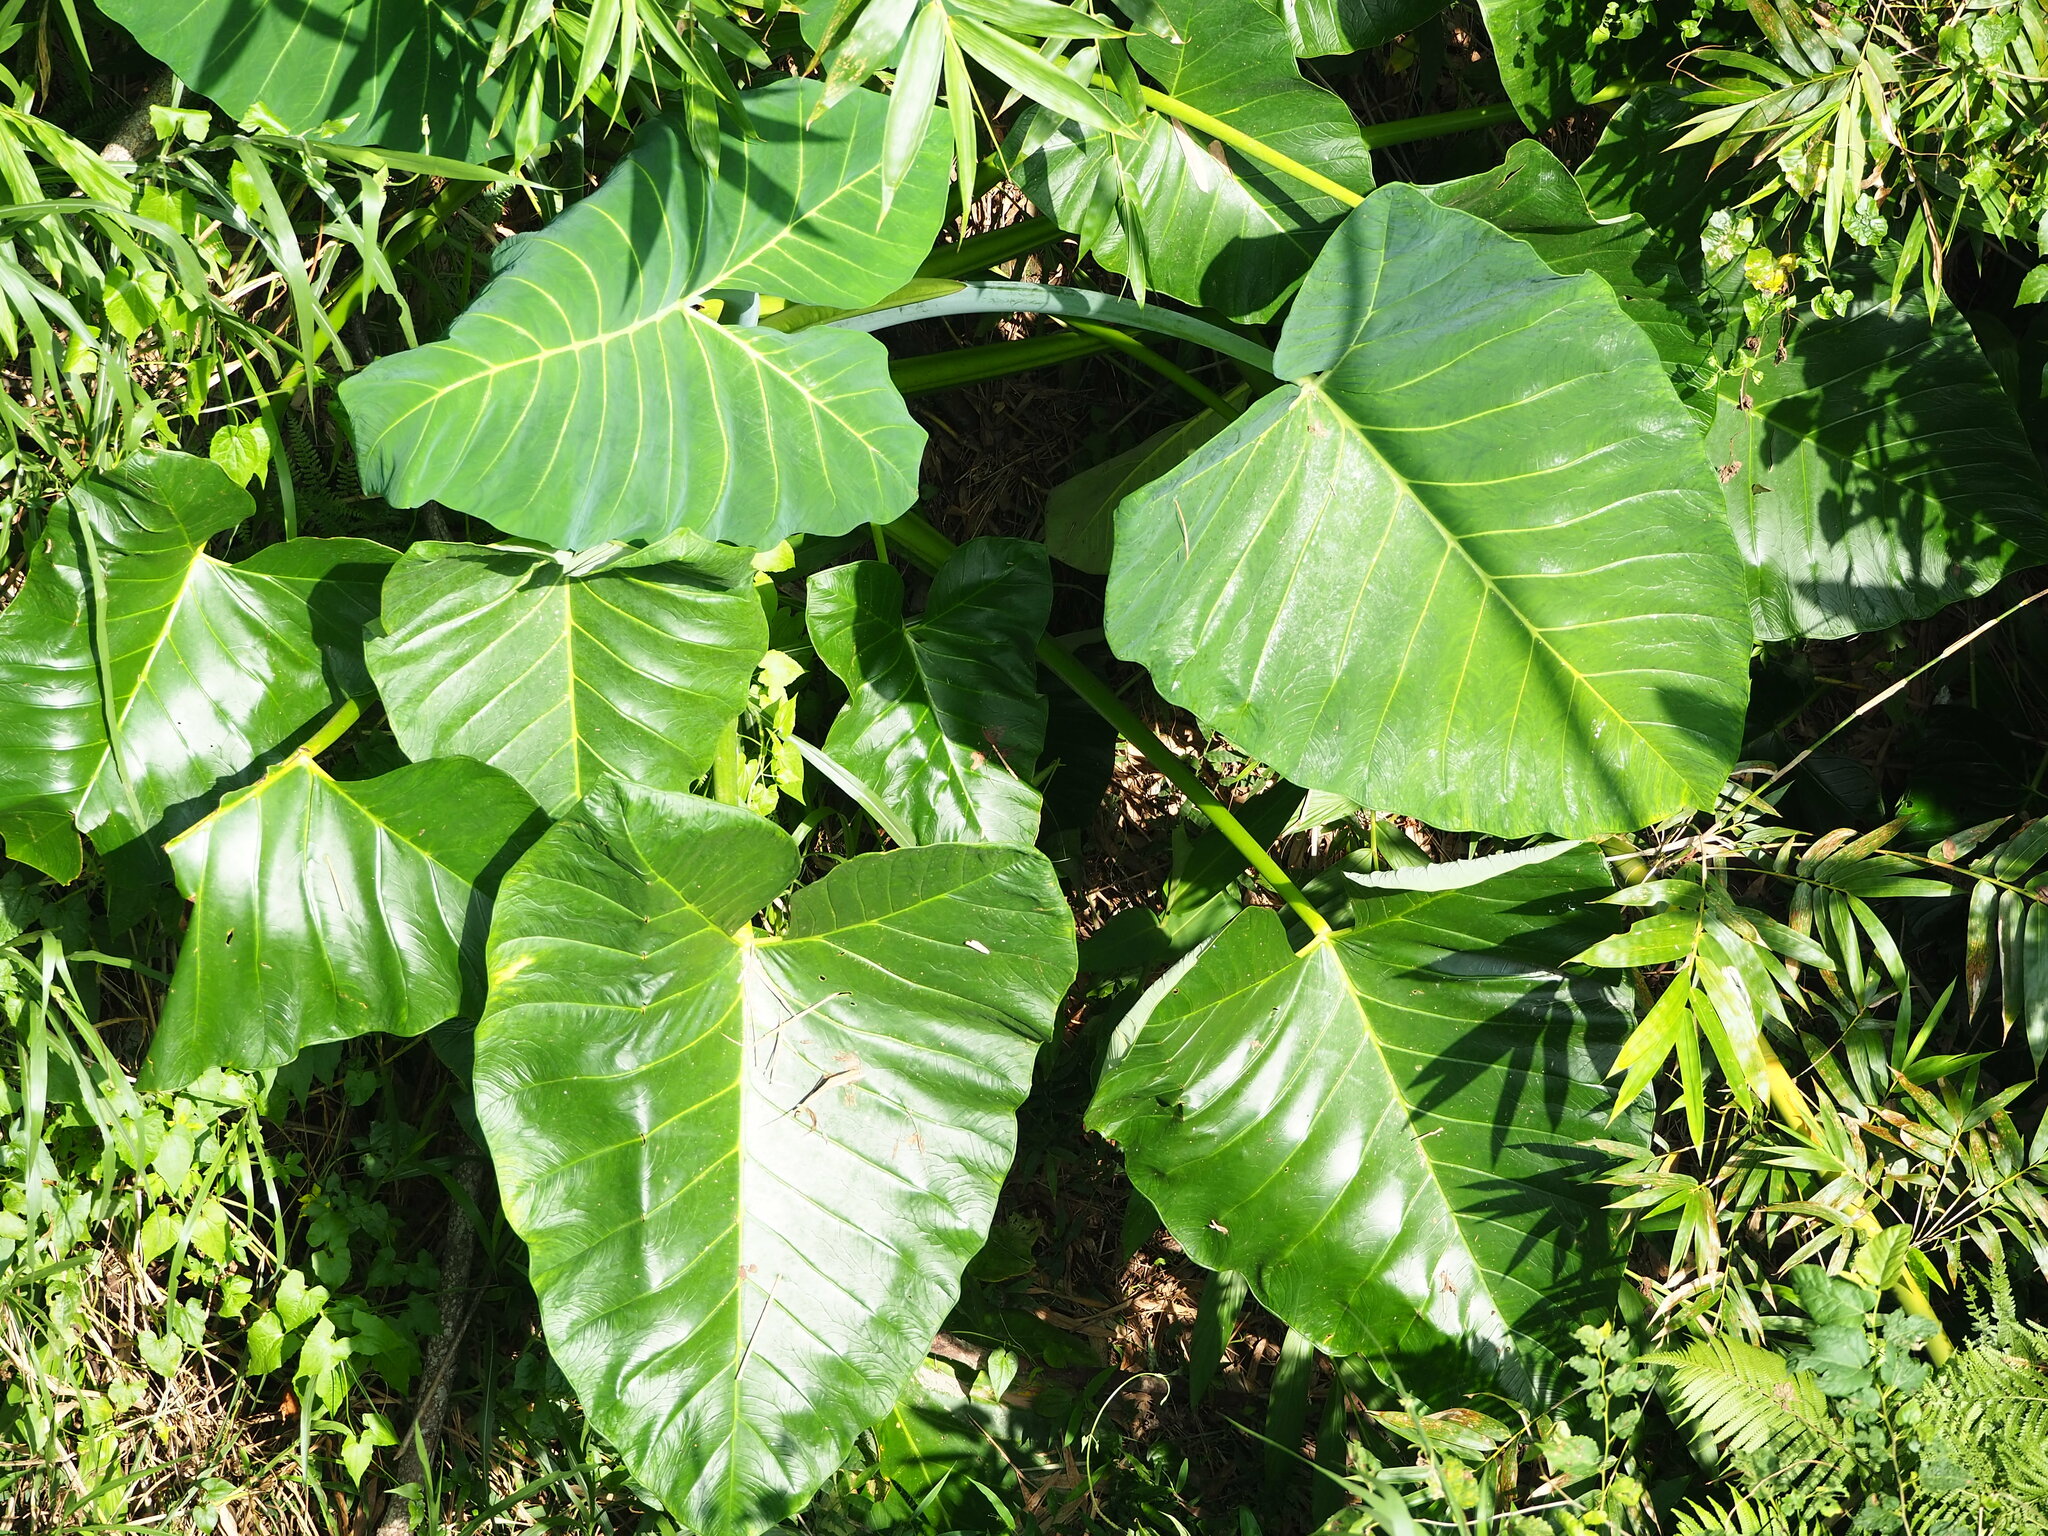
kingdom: Plantae
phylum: Tracheophyta
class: Liliopsida
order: Alismatales
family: Araceae
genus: Xanthosoma
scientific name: Xanthosoma sagittifolium
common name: Arrowleaf elephant's ear
